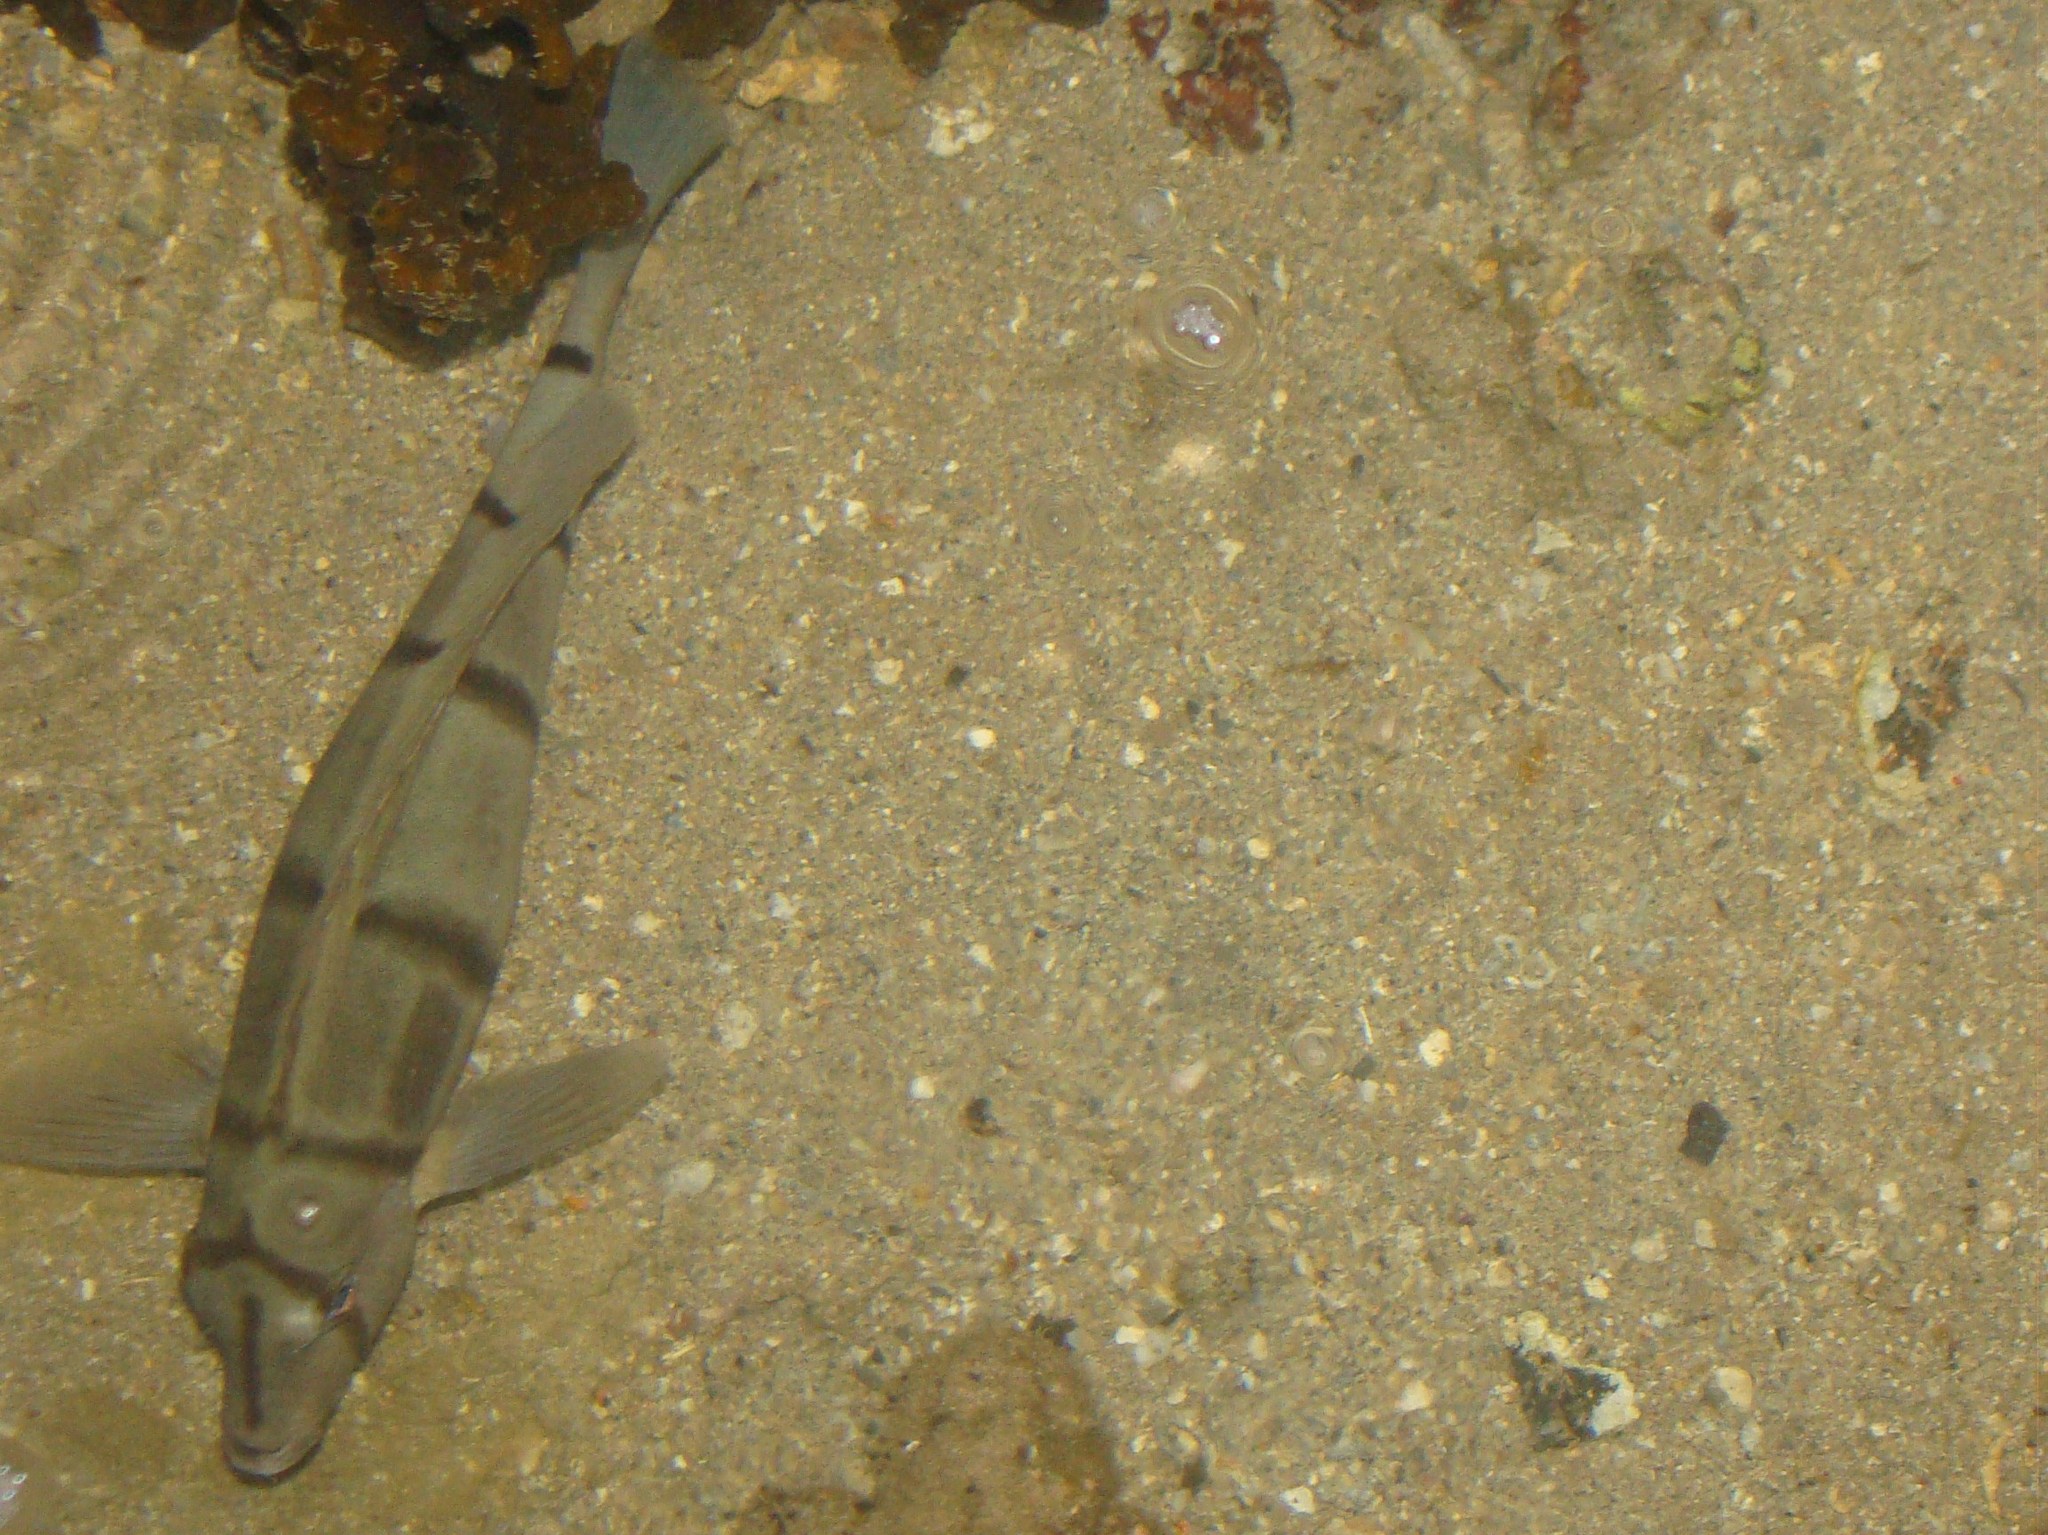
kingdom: Animalia
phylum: Chordata
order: Perciformes
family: Acanthuridae
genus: Acanthurus
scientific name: Acanthurus triostegus
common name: Convict surgeonfish
